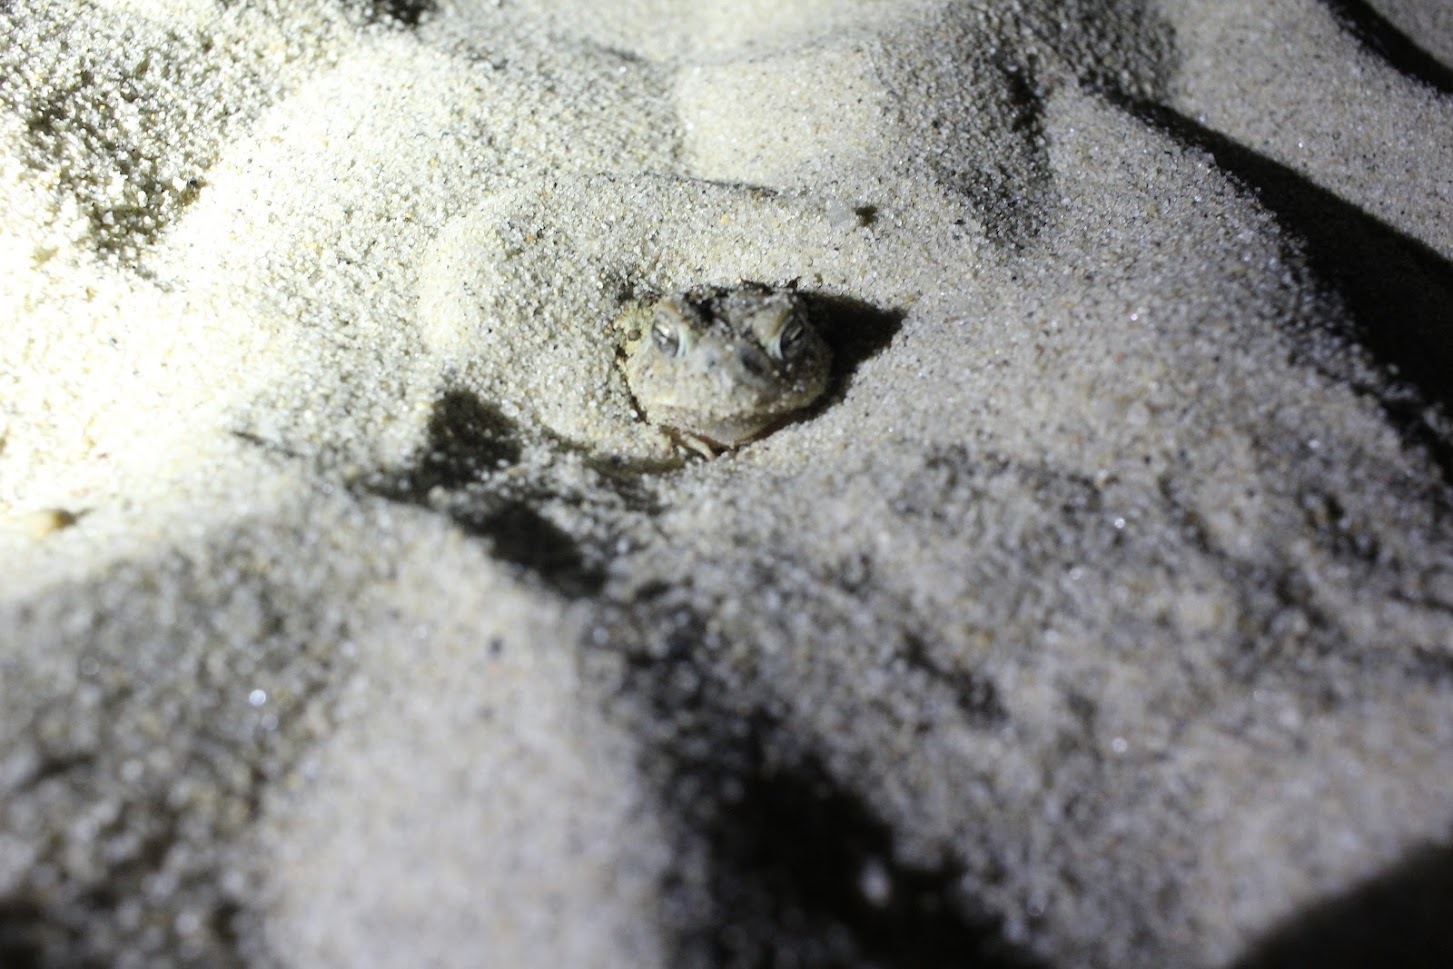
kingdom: Animalia
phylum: Chordata
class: Amphibia
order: Anura
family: Bufonidae
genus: Anaxyrus
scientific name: Anaxyrus fowleri
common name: Fowler's toad
